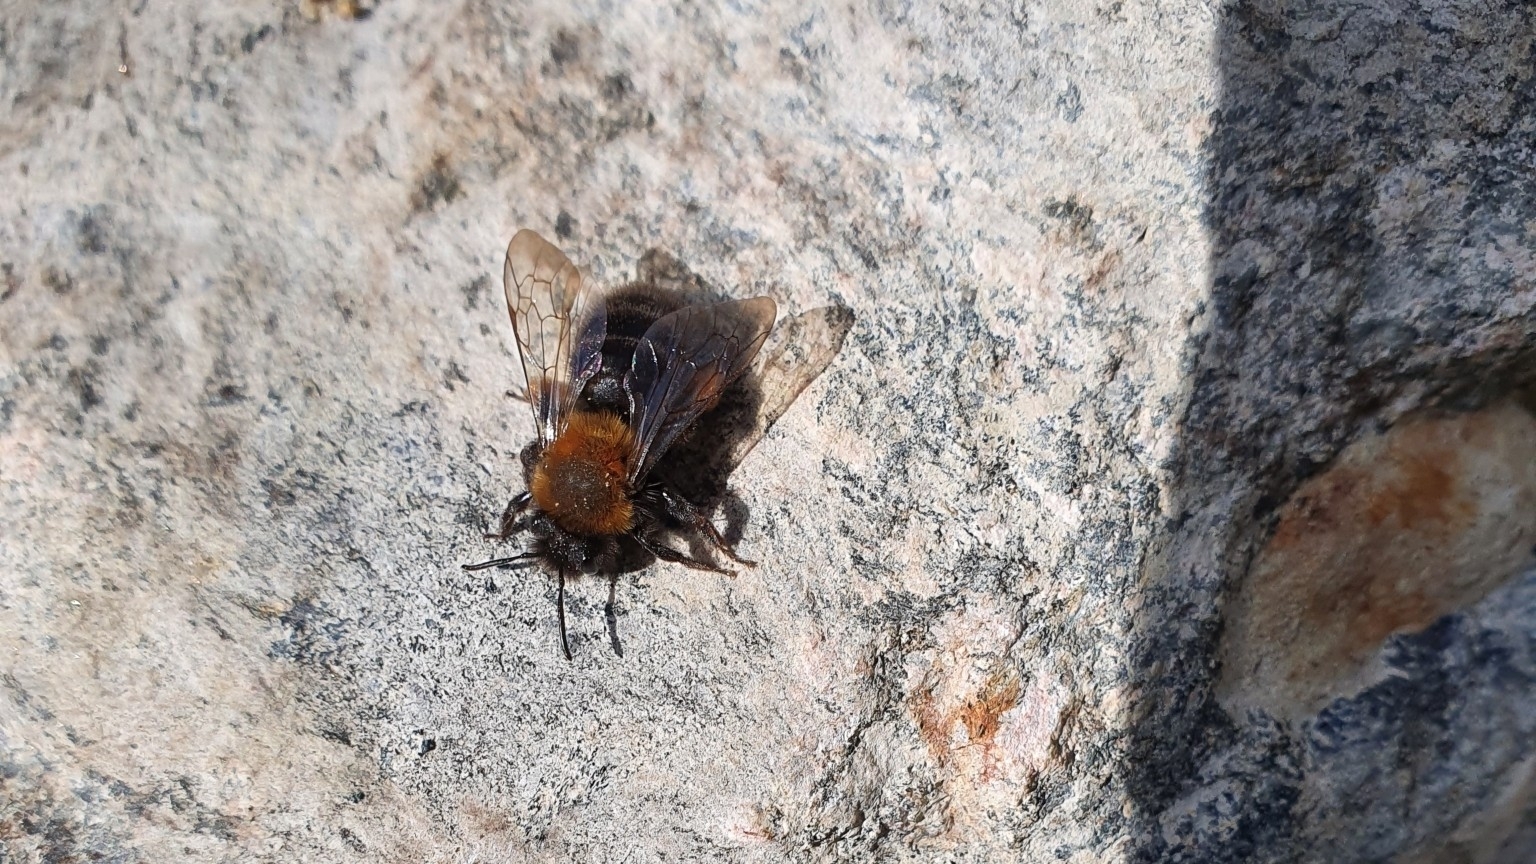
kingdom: Animalia
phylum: Arthropoda
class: Insecta
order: Hymenoptera
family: Andrenidae
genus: Andrena
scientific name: Andrena clarkella
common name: Clarke's mining bee
